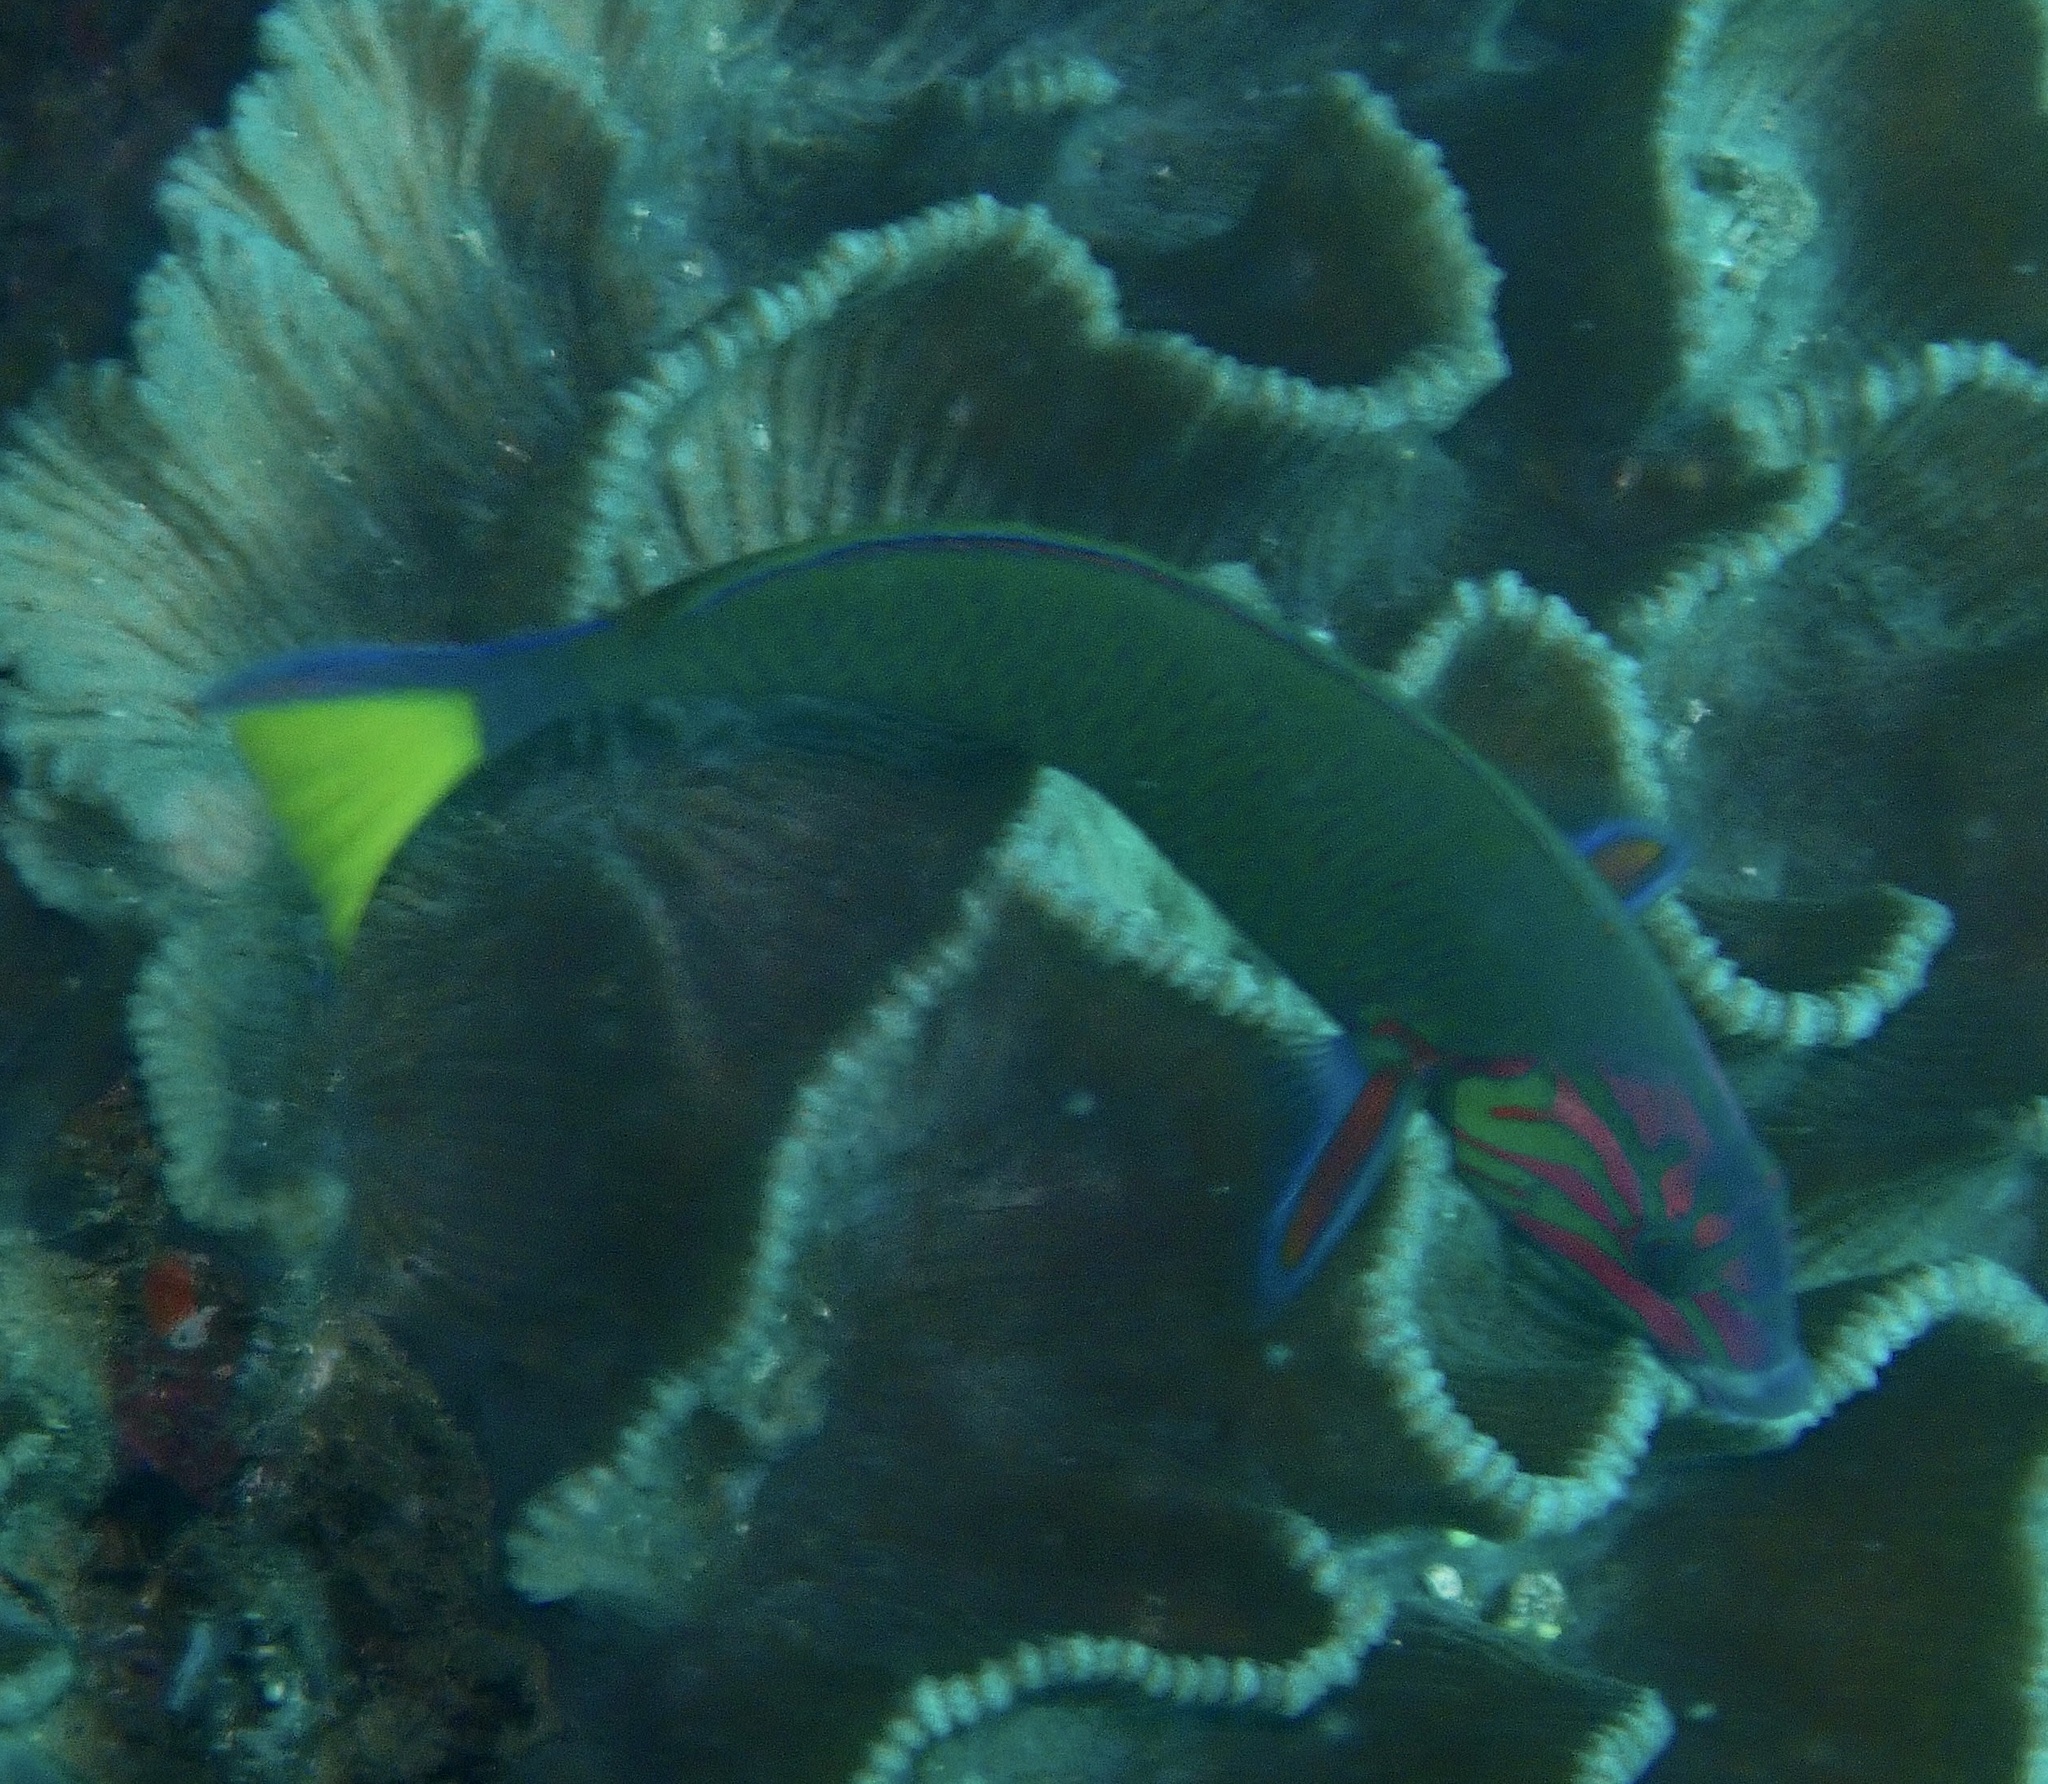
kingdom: Animalia
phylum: Chordata
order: Perciformes
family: Labridae
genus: Thalassoma
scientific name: Thalassoma lunare
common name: Blue wrasse
